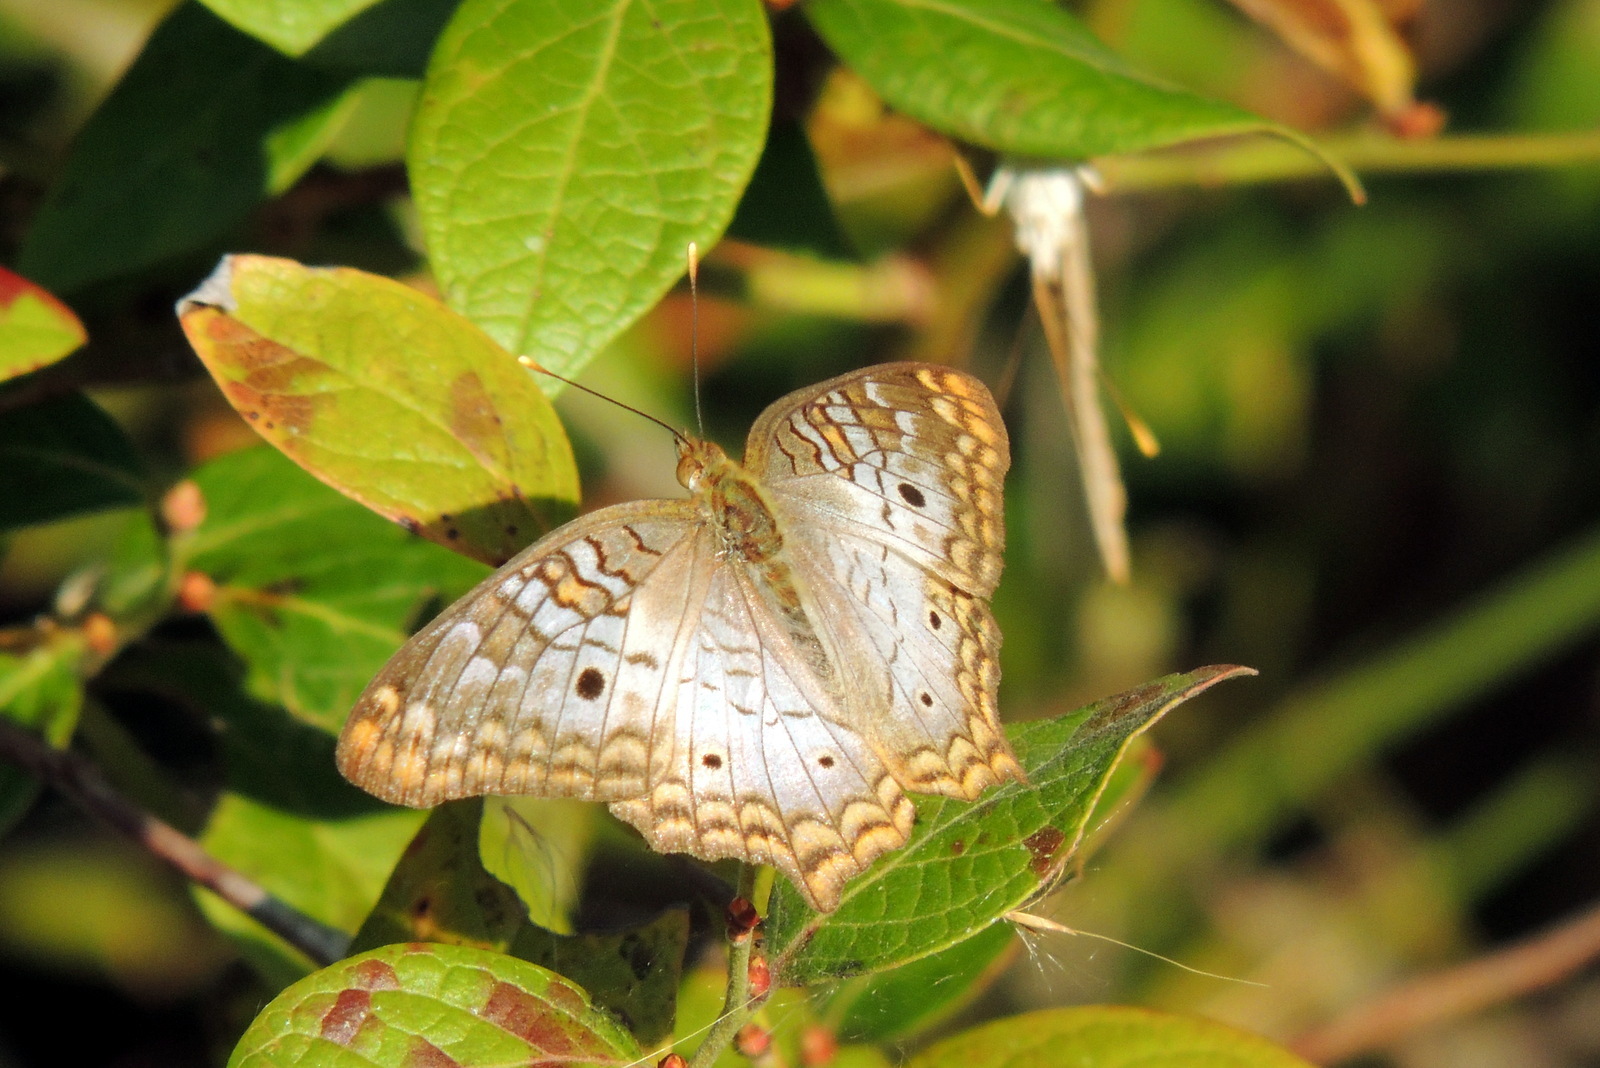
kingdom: Animalia
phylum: Arthropoda
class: Insecta
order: Lepidoptera
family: Nymphalidae
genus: Anartia
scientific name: Anartia jatrophae
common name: White peacock
